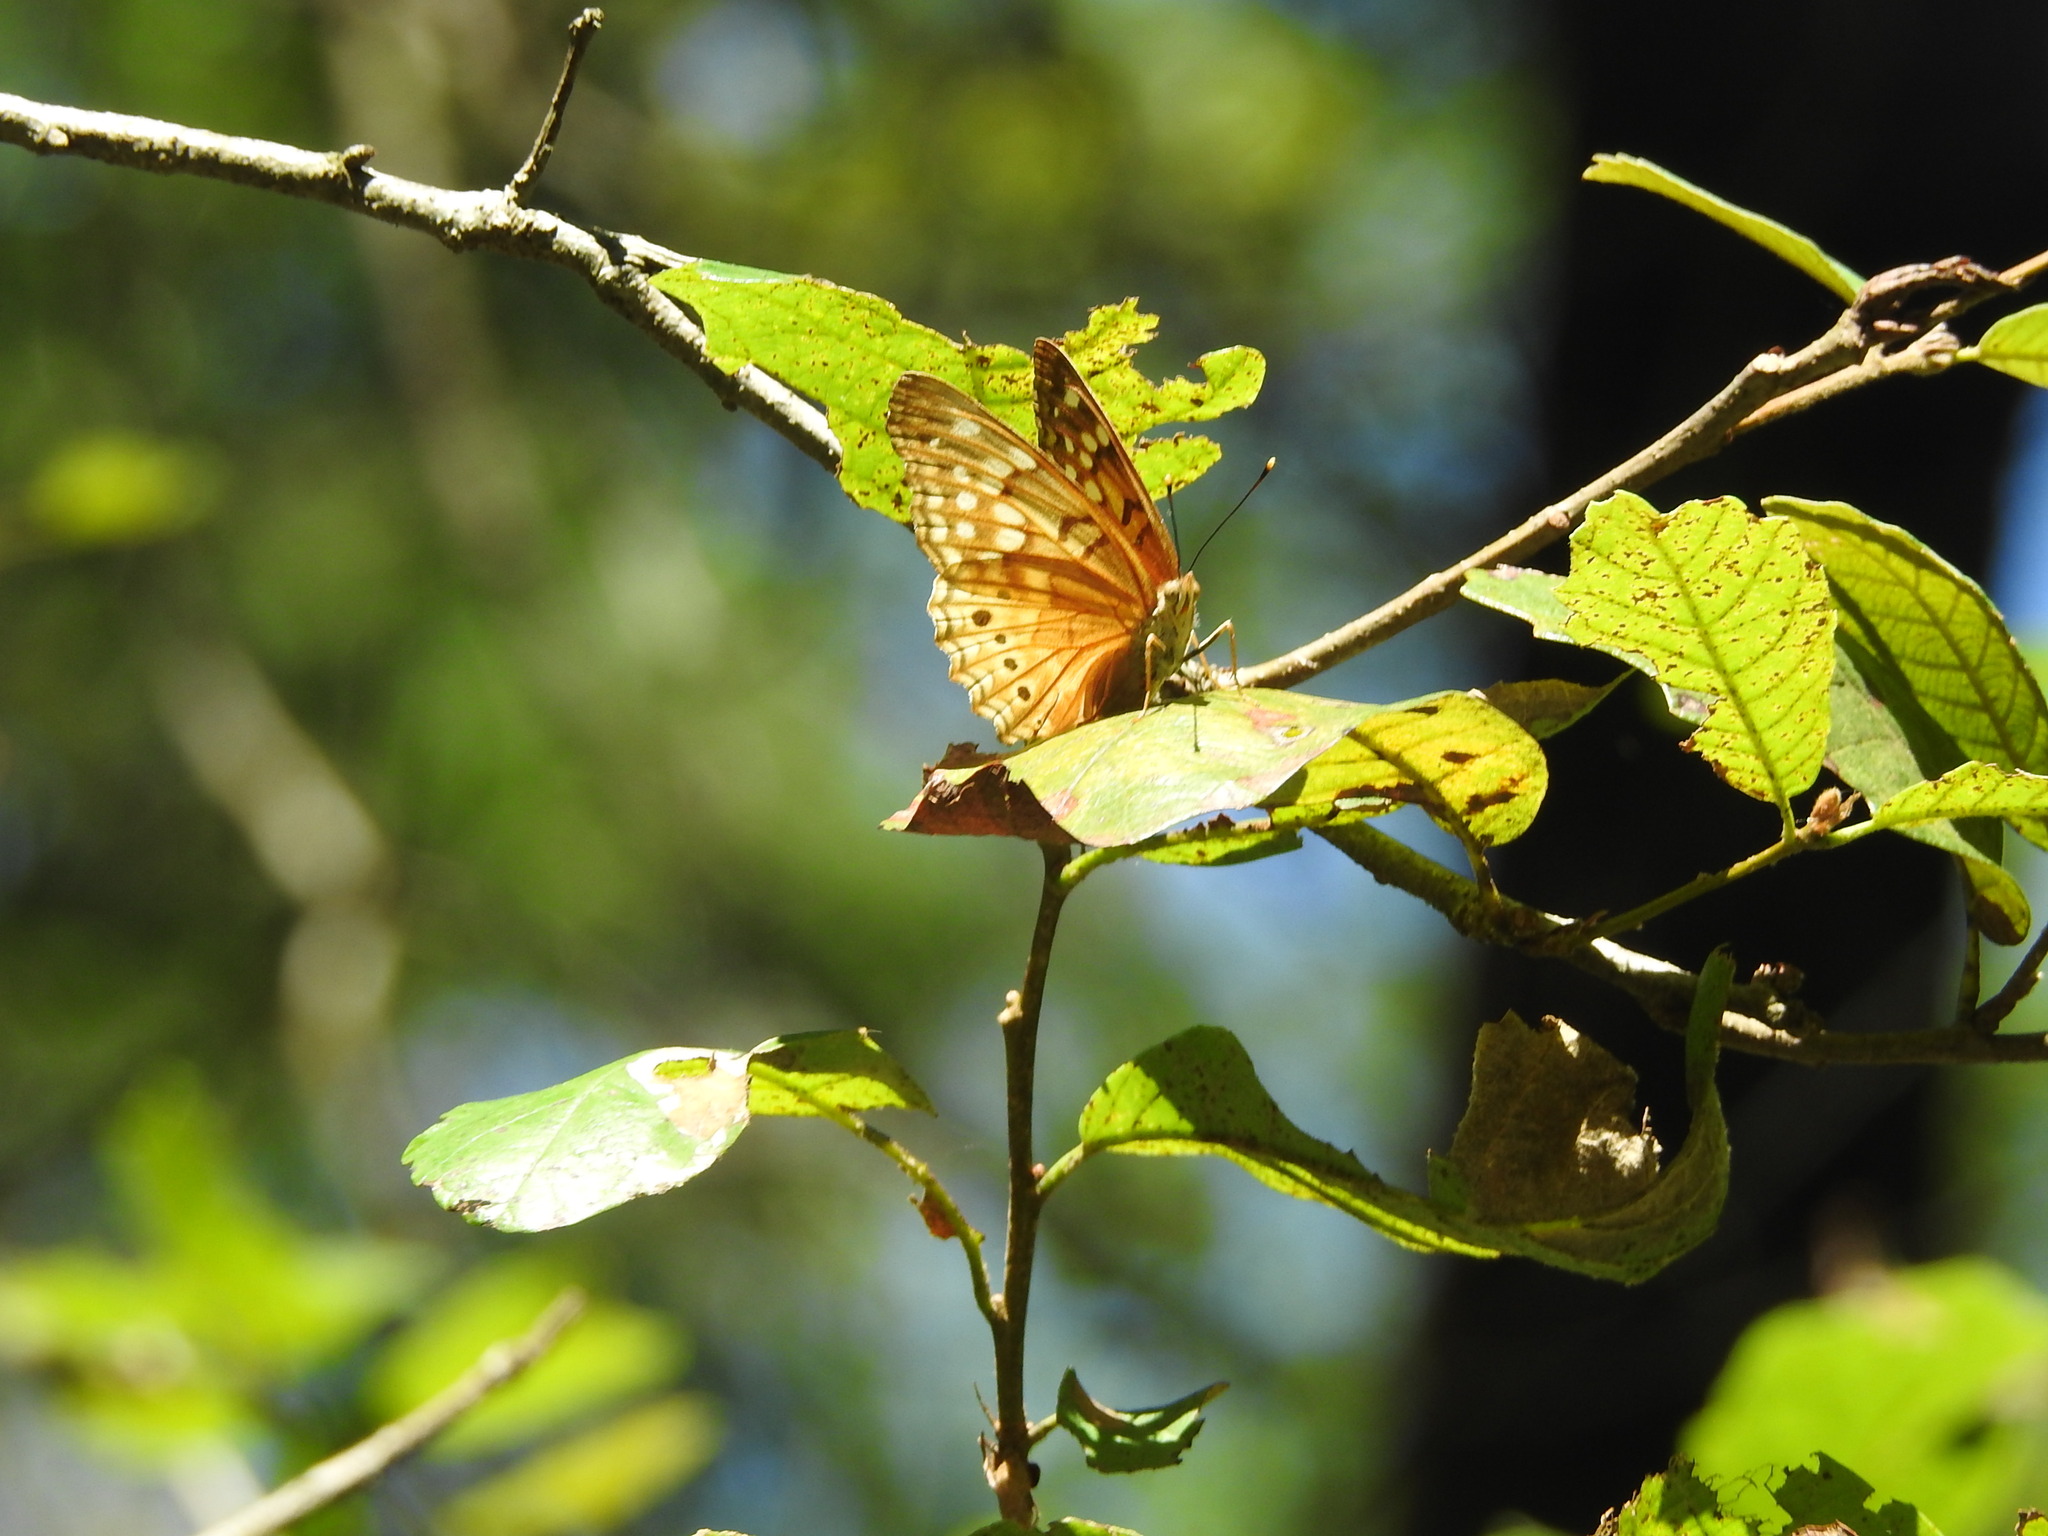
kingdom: Animalia
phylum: Arthropoda
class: Insecta
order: Lepidoptera
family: Nymphalidae
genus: Asterocampa
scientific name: Asterocampa clyton
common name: Tawny emperor
